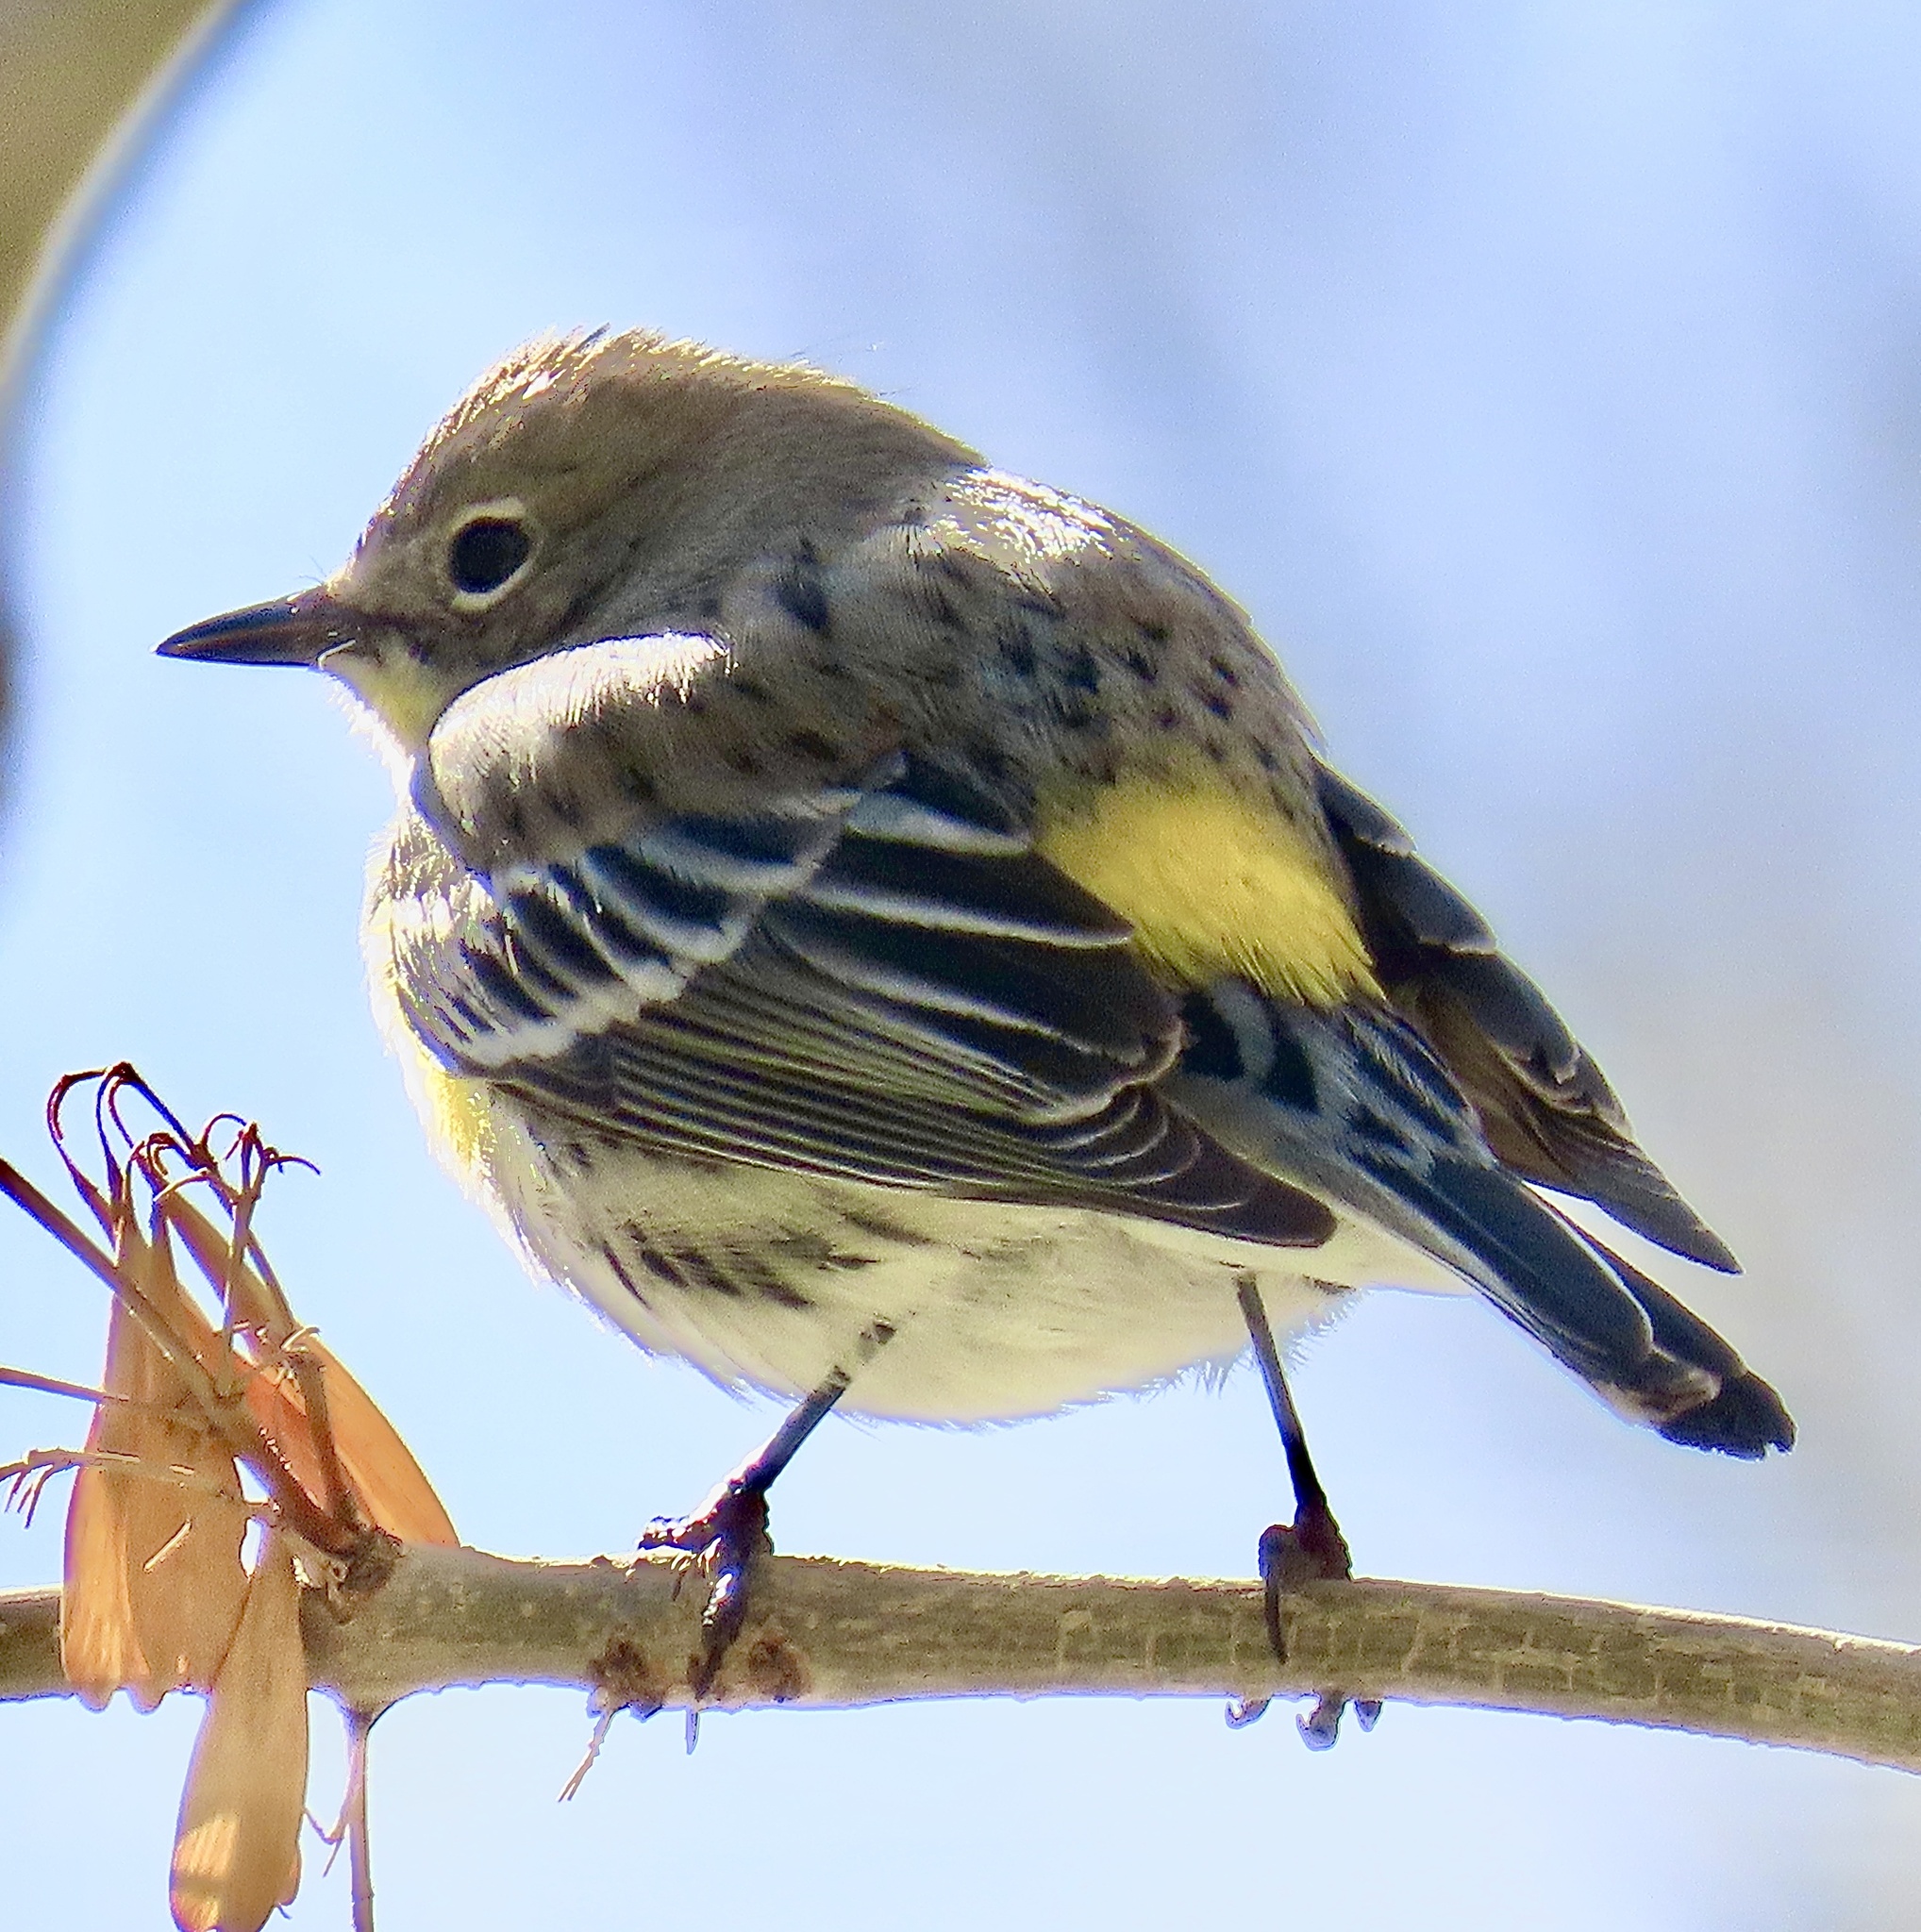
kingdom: Animalia
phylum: Chordata
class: Aves
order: Passeriformes
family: Parulidae
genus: Setophaga
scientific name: Setophaga auduboni
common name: Audubon's warbler
